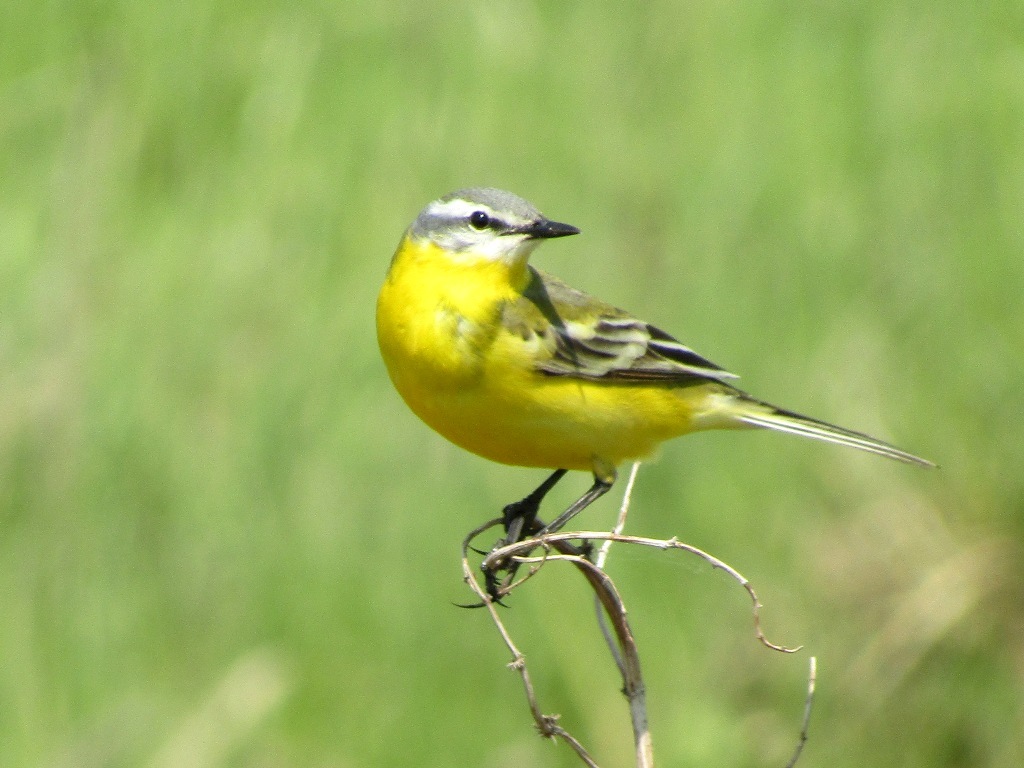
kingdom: Animalia
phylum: Chordata
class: Aves
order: Passeriformes
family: Motacillidae
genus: Motacilla
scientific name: Motacilla flava
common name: Western yellow wagtail
